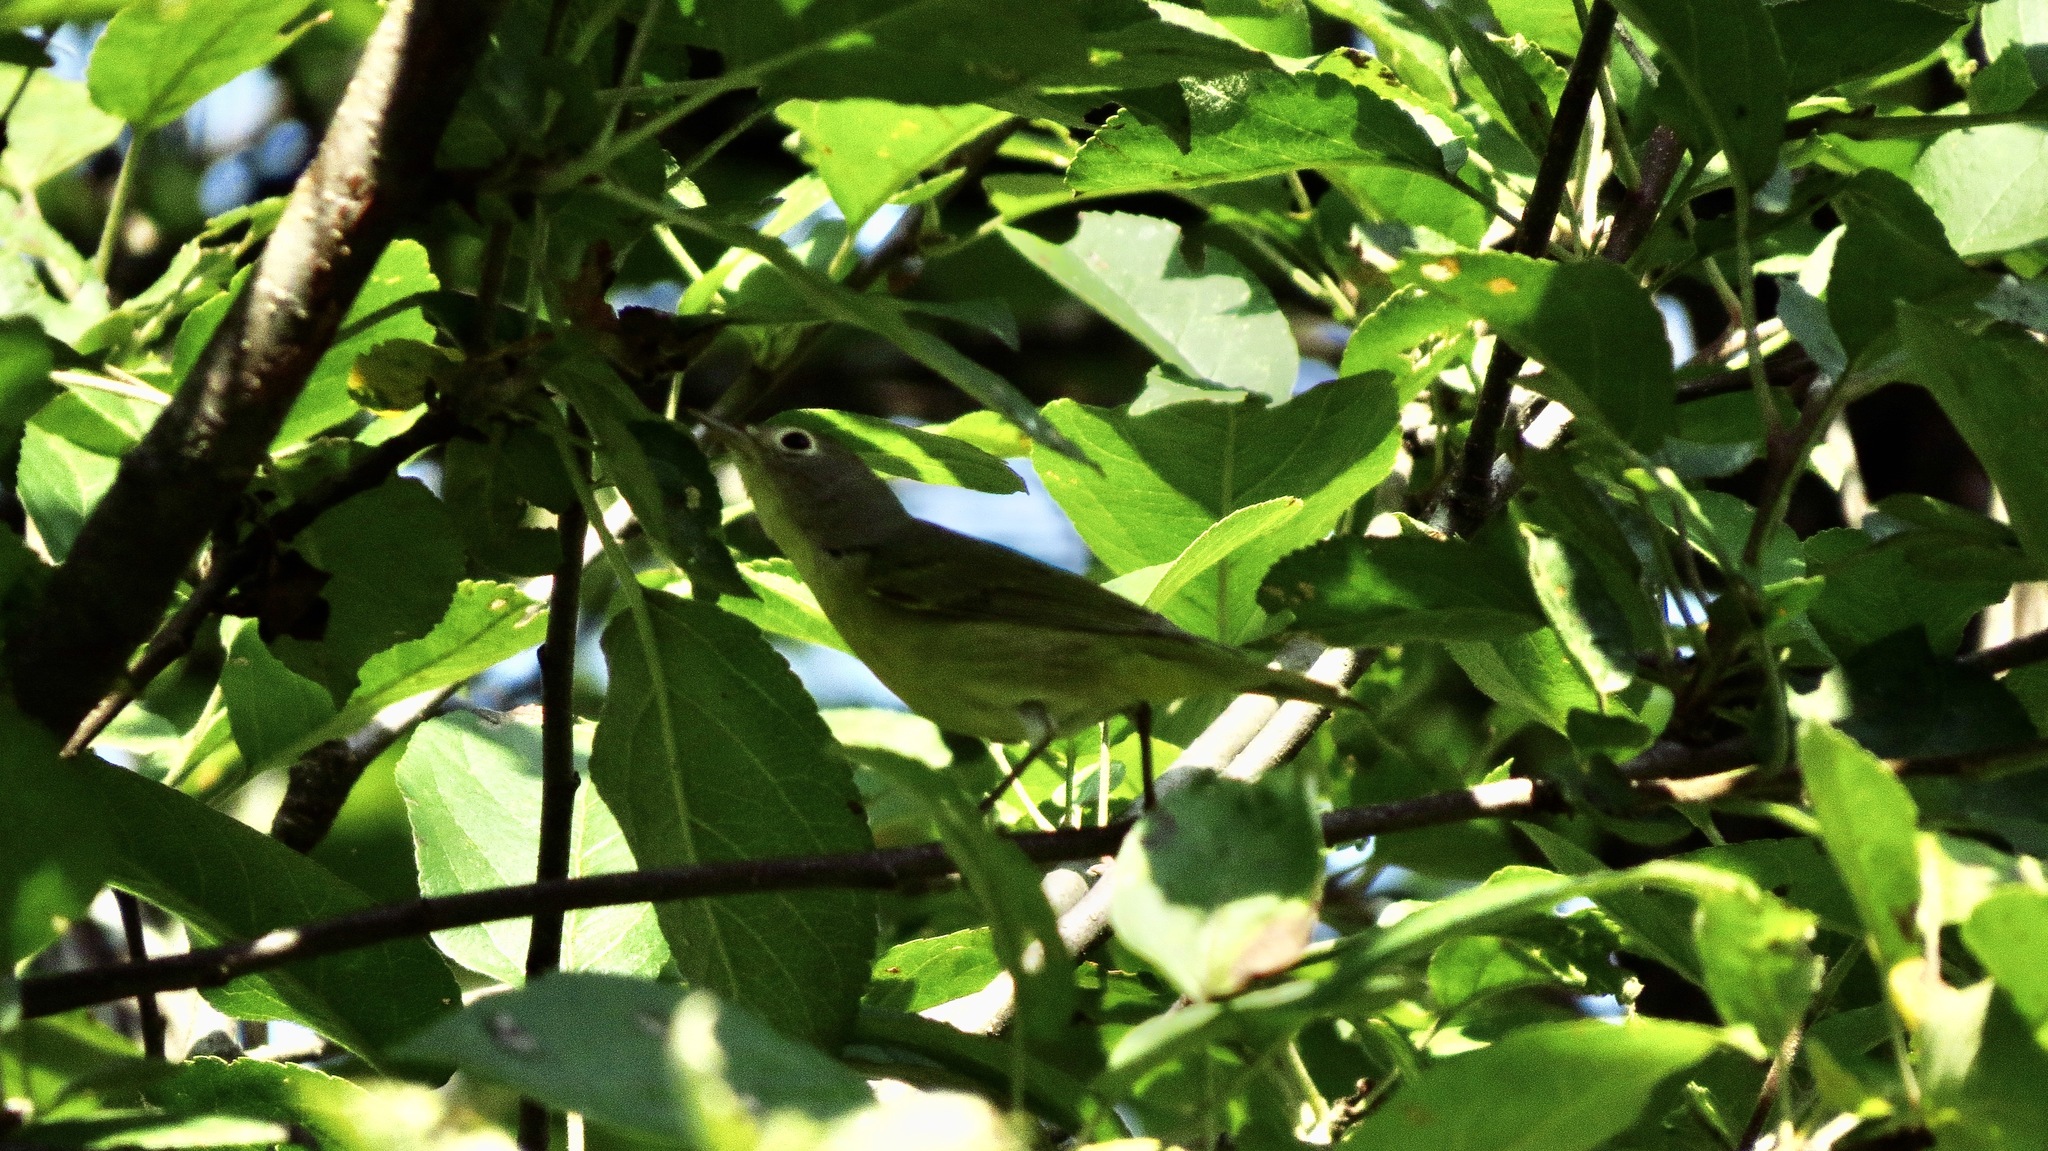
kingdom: Animalia
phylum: Chordata
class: Aves
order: Passeriformes
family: Parulidae
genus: Leiothlypis
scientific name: Leiothlypis ruficapilla
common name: Nashville warbler
